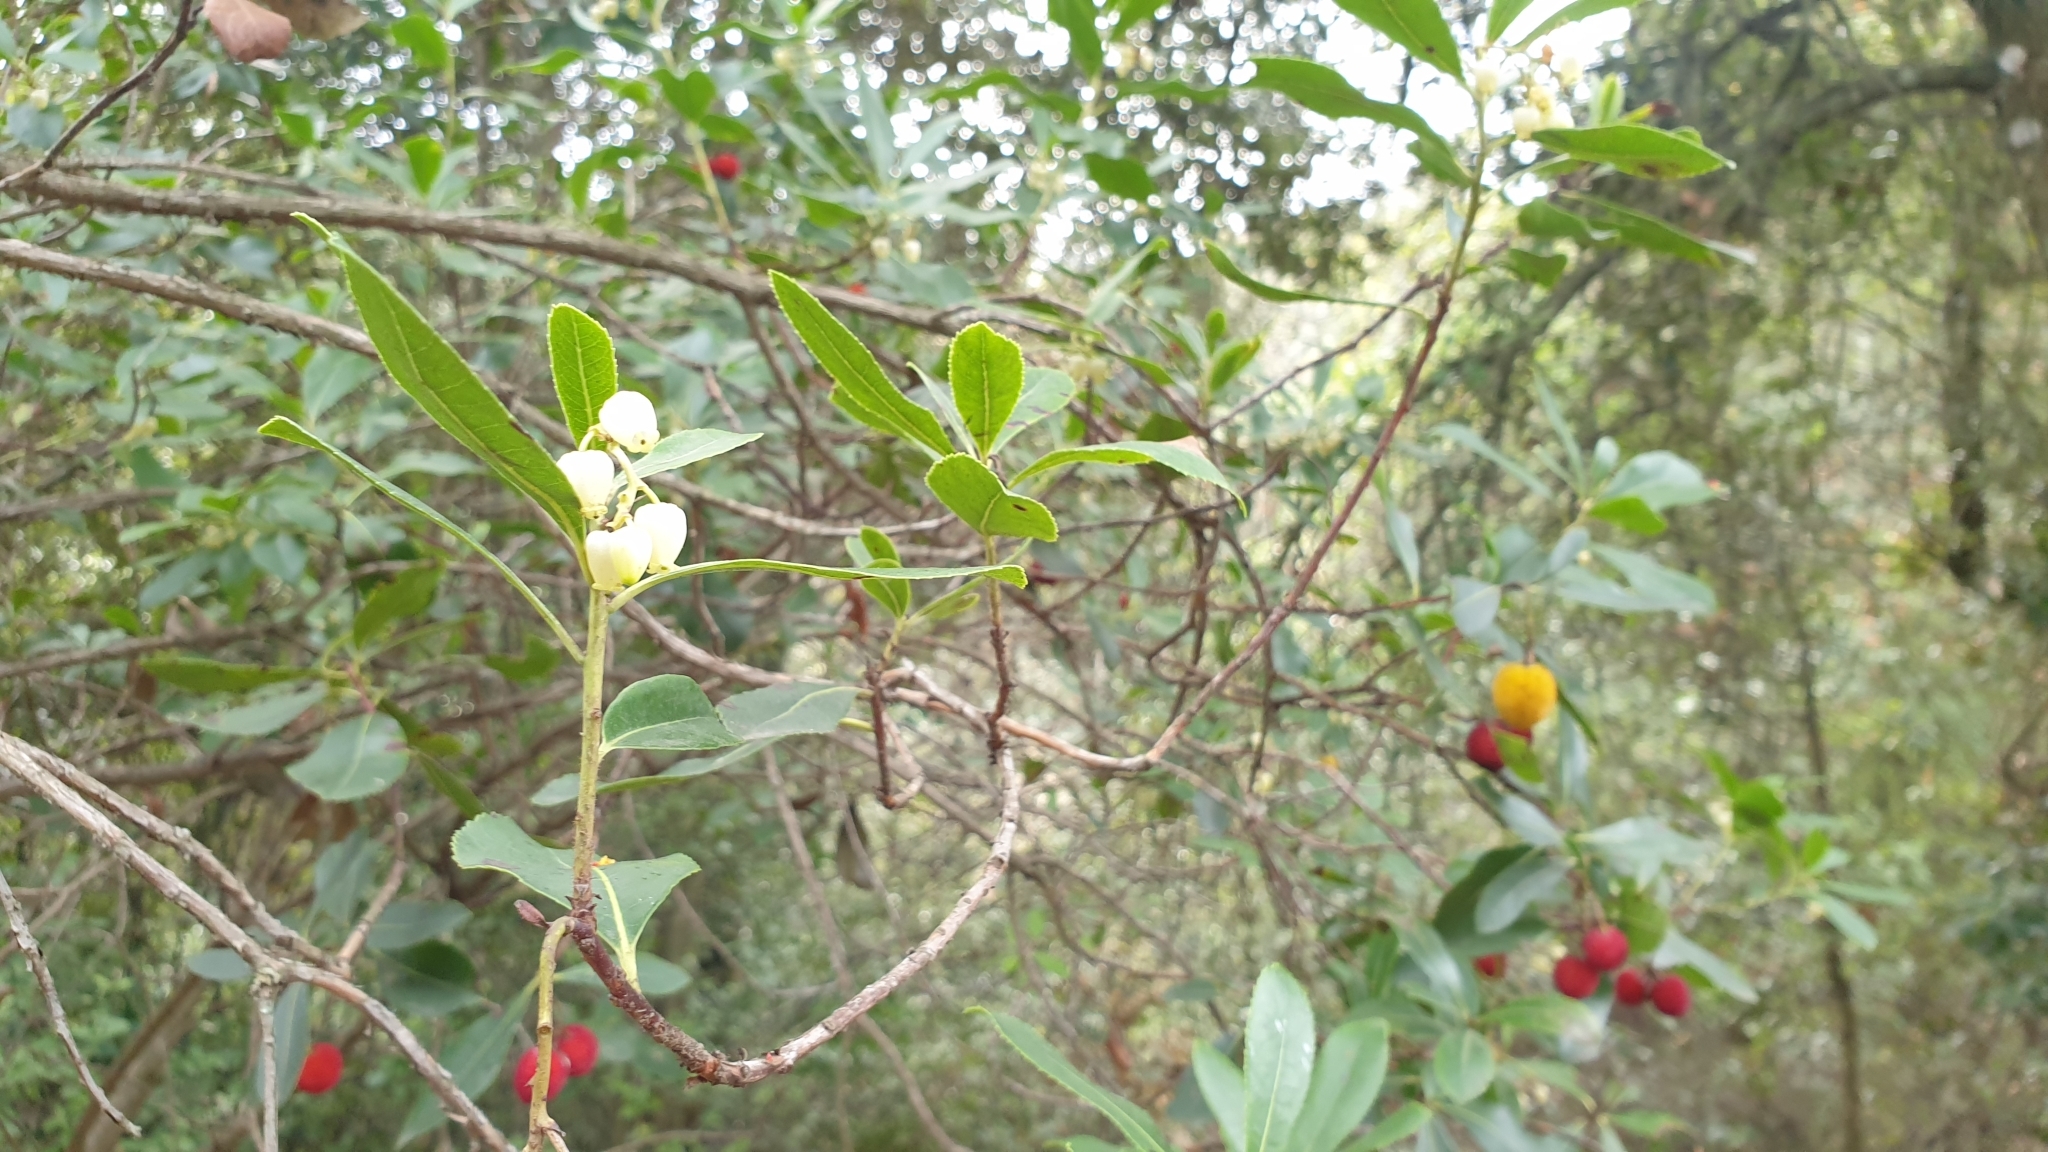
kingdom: Plantae
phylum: Tracheophyta
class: Magnoliopsida
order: Ericales
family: Ericaceae
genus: Arbutus
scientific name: Arbutus unedo
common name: Strawberry-tree
